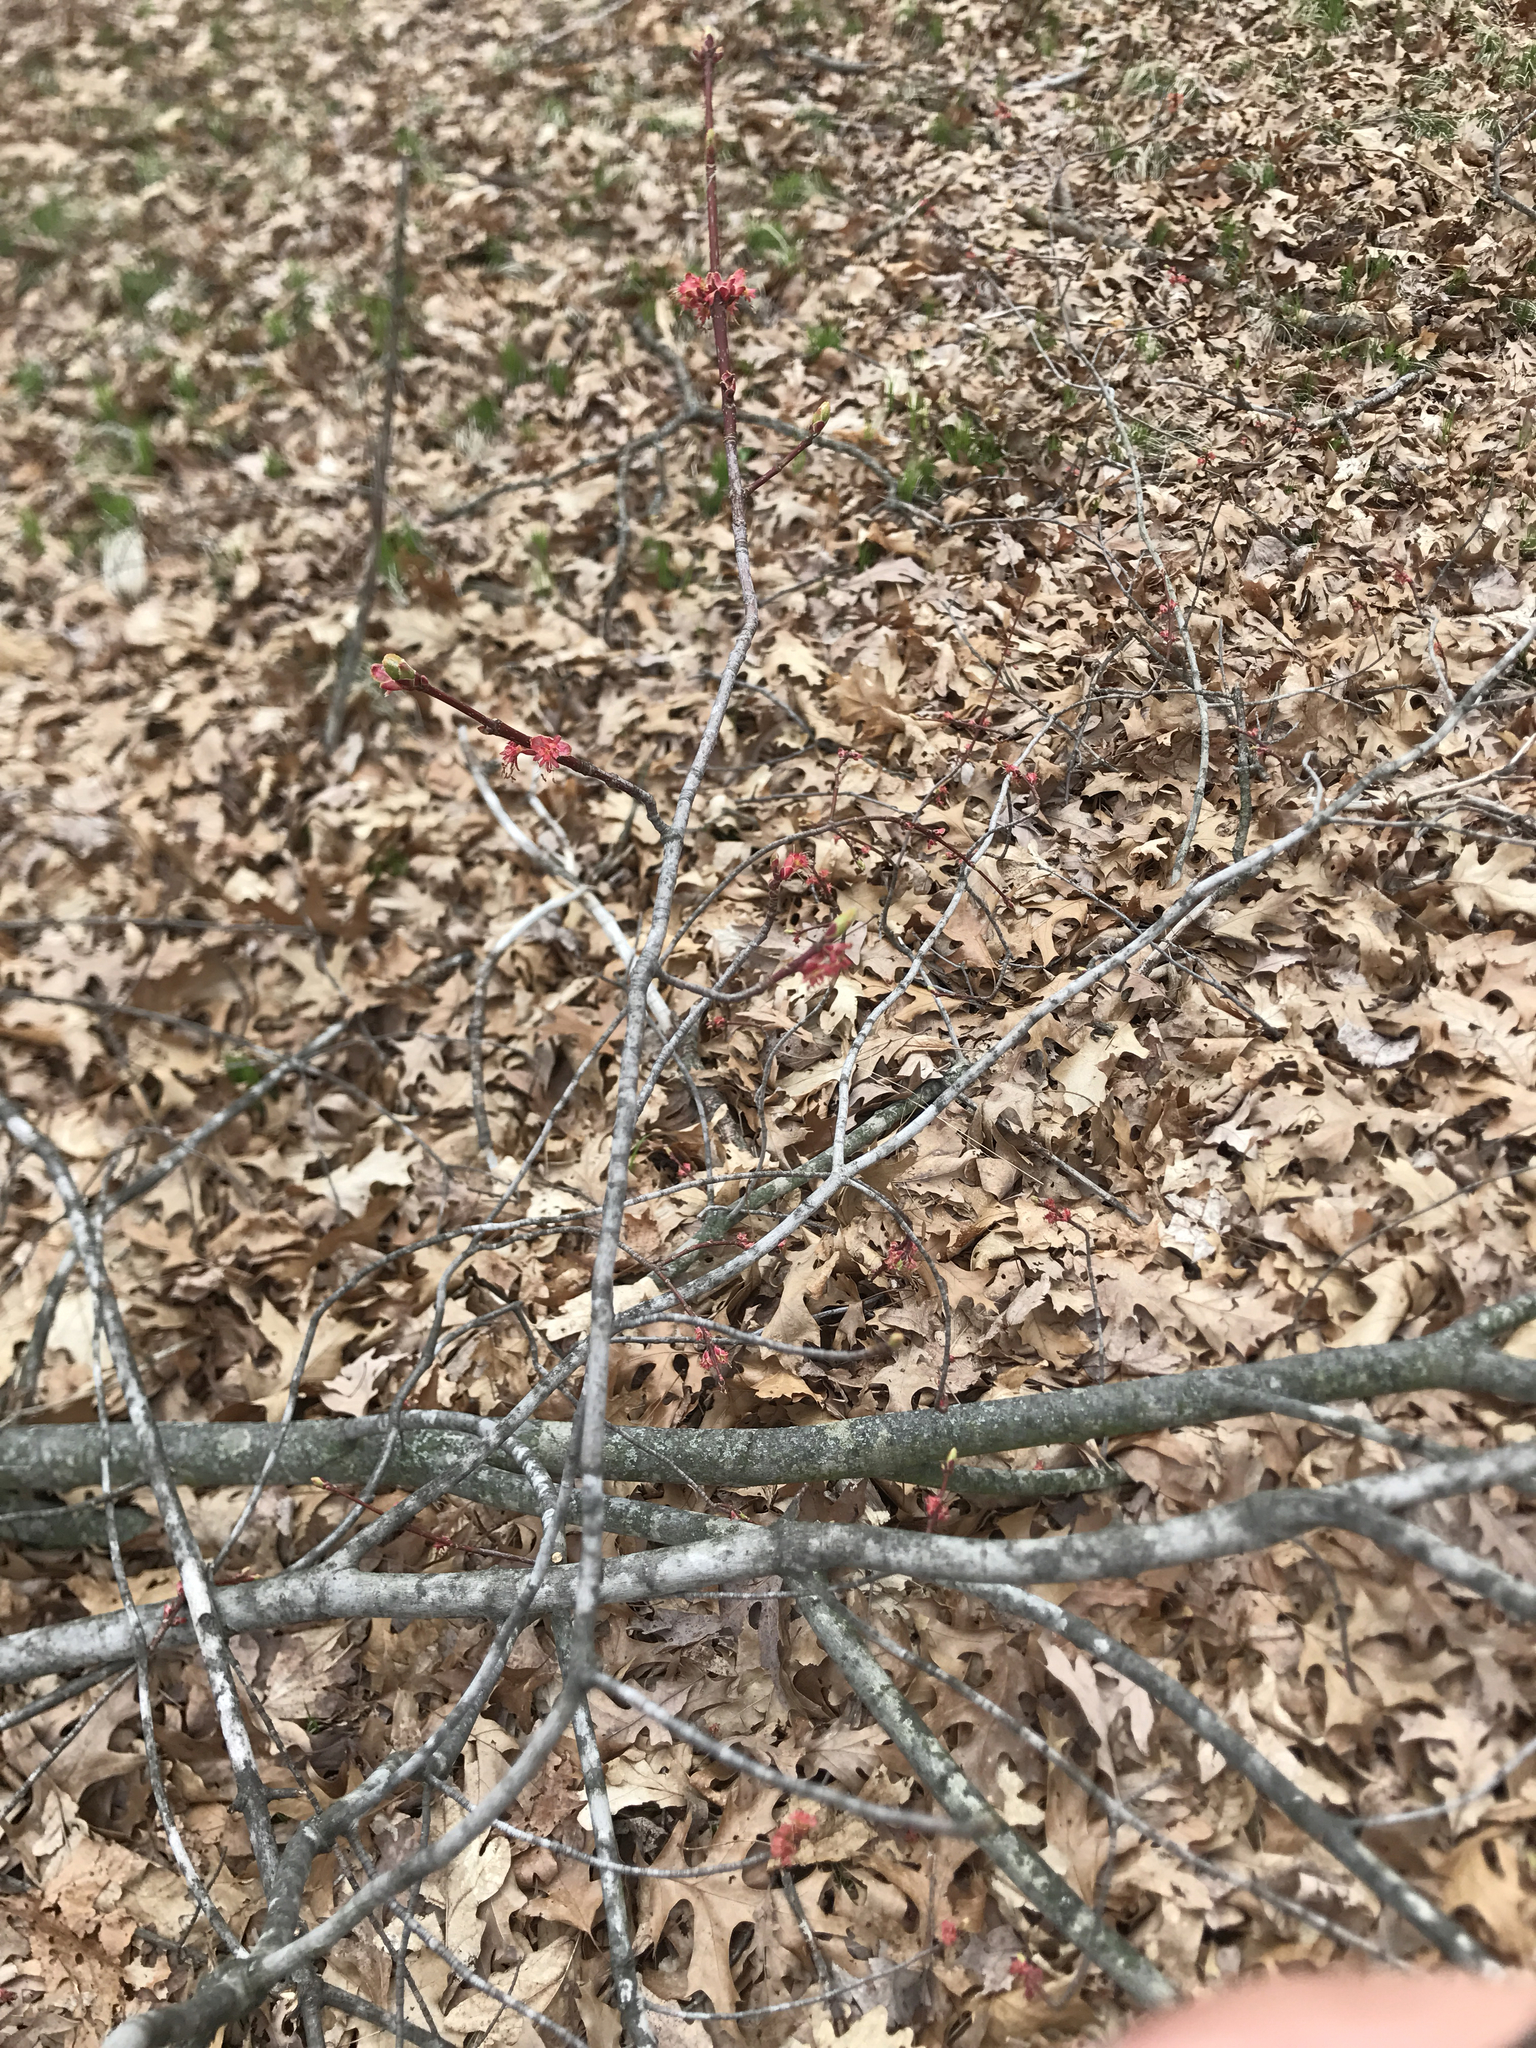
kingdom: Plantae
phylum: Tracheophyta
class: Magnoliopsida
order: Sapindales
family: Sapindaceae
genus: Acer
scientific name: Acer rubrum
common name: Red maple
